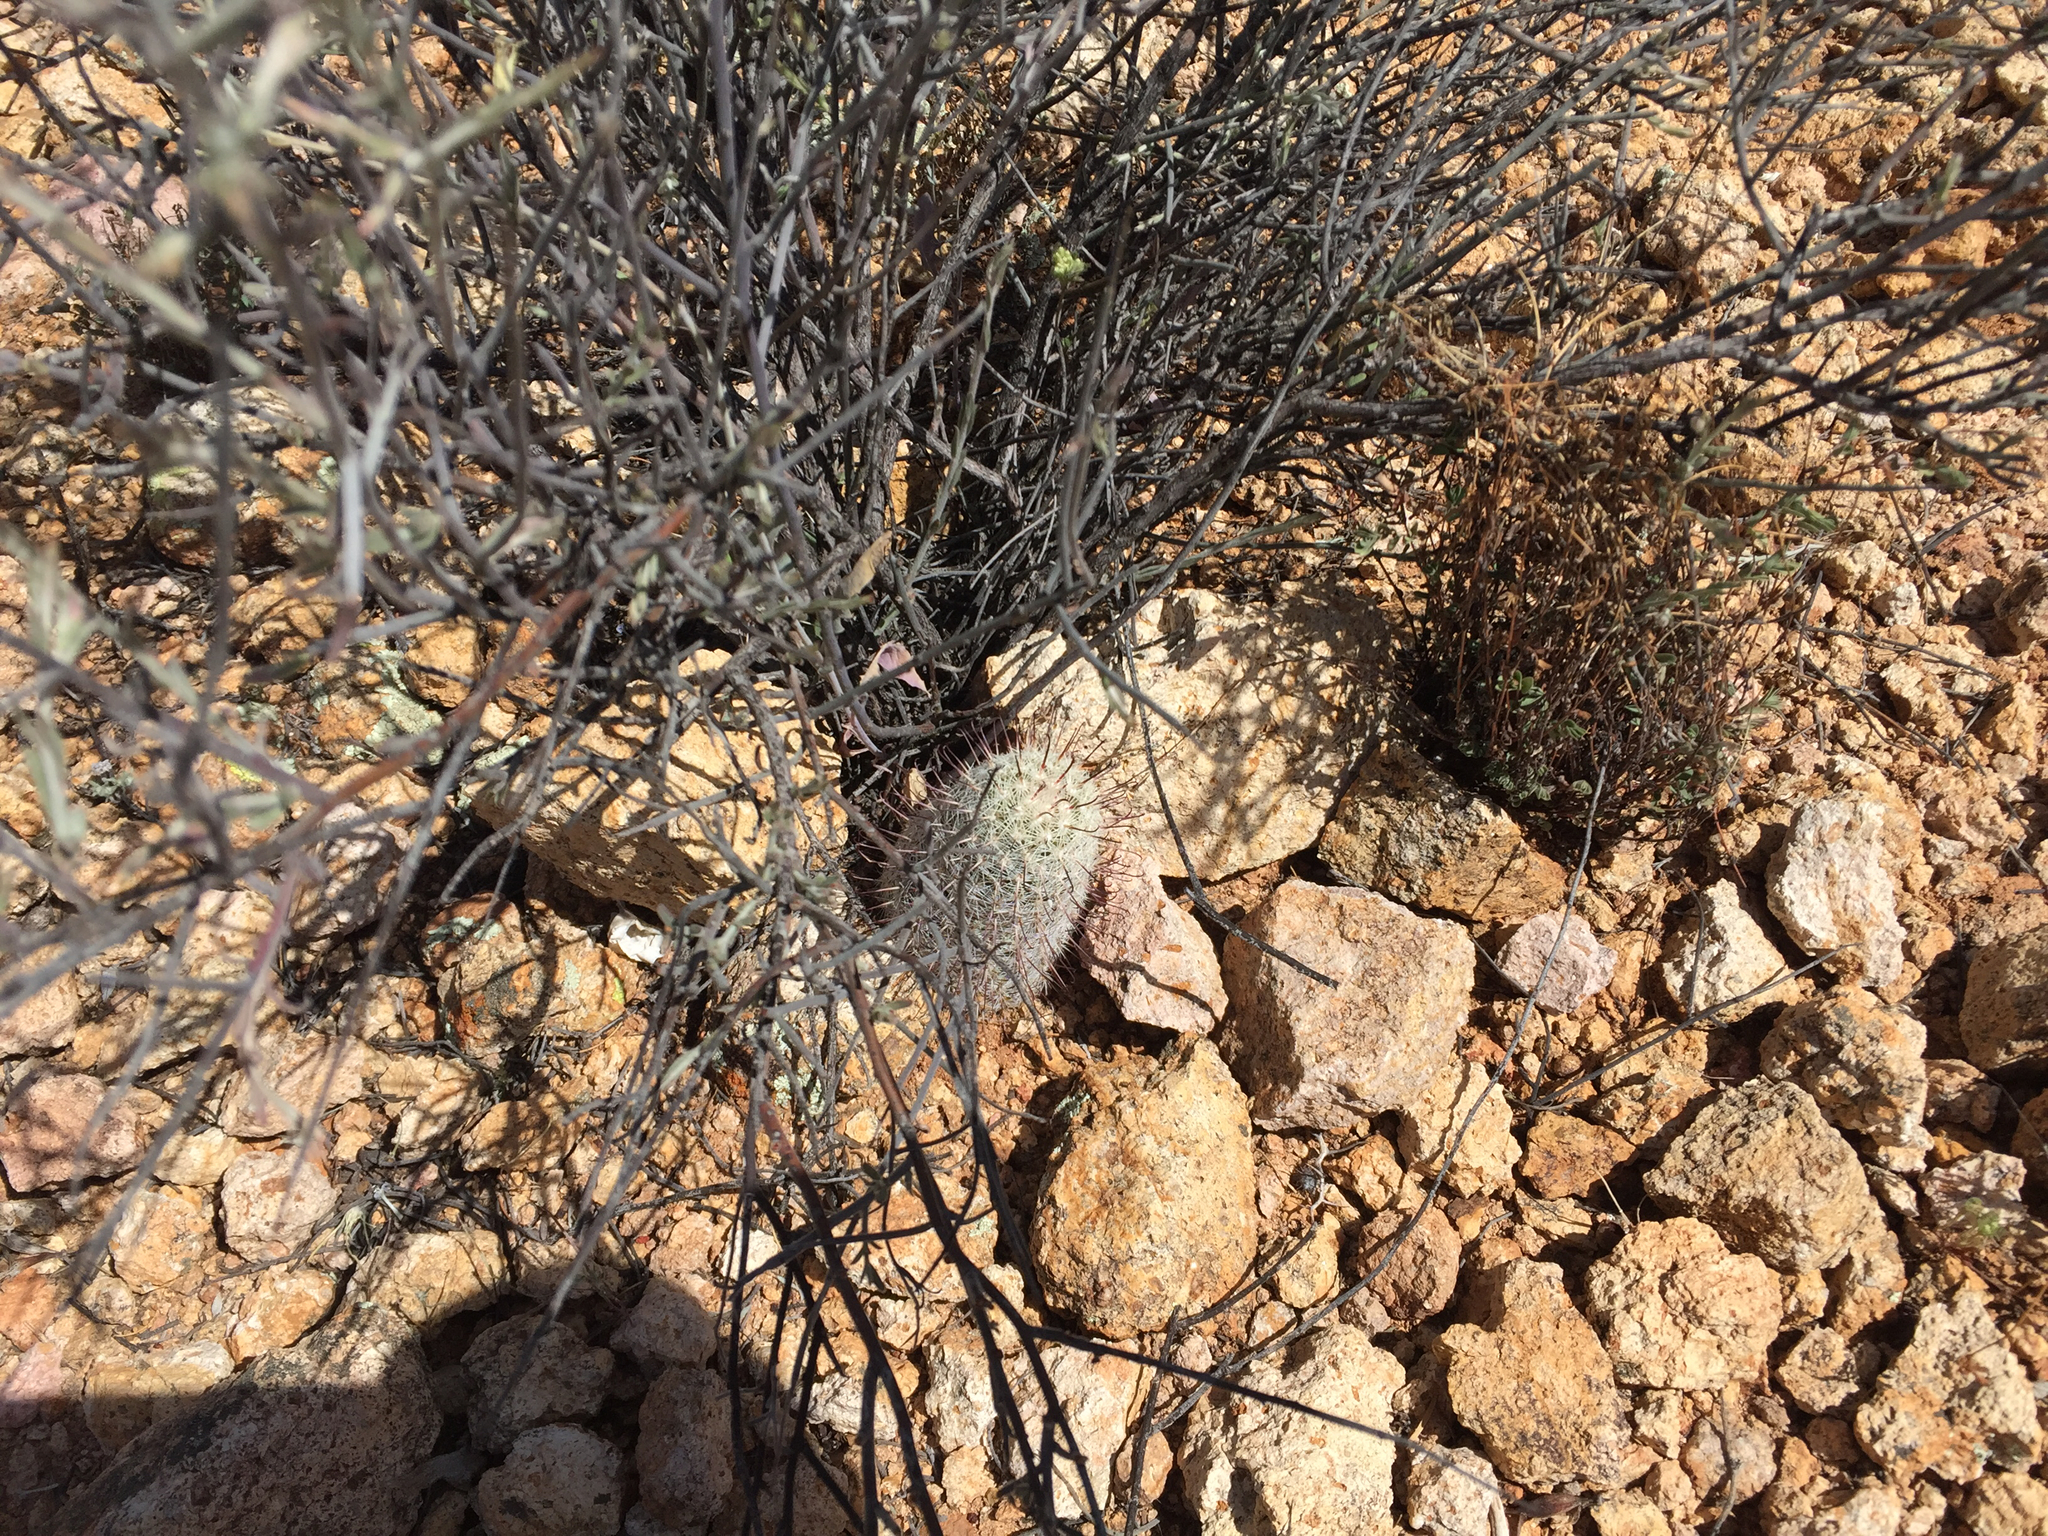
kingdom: Plantae
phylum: Tracheophyta
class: Magnoliopsida
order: Caryophyllales
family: Cactaceae
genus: Cochemiea
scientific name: Cochemiea grahamii
